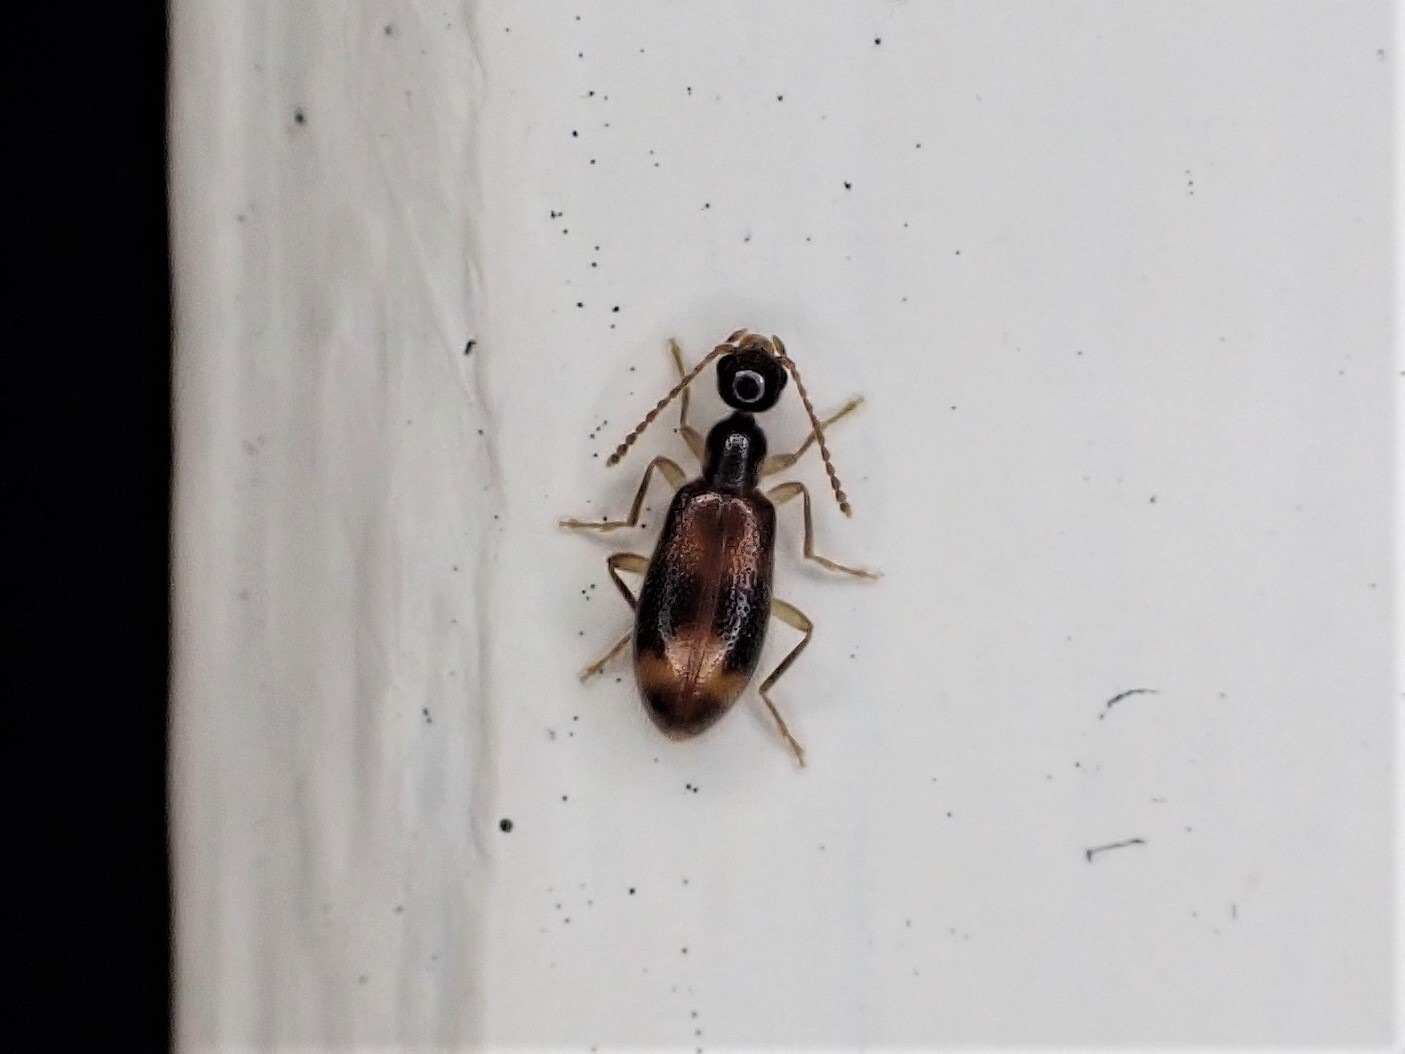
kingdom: Animalia
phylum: Arthropoda
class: Insecta
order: Coleoptera
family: Anthicidae
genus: Sapintus
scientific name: Sapintus pellucidipes
